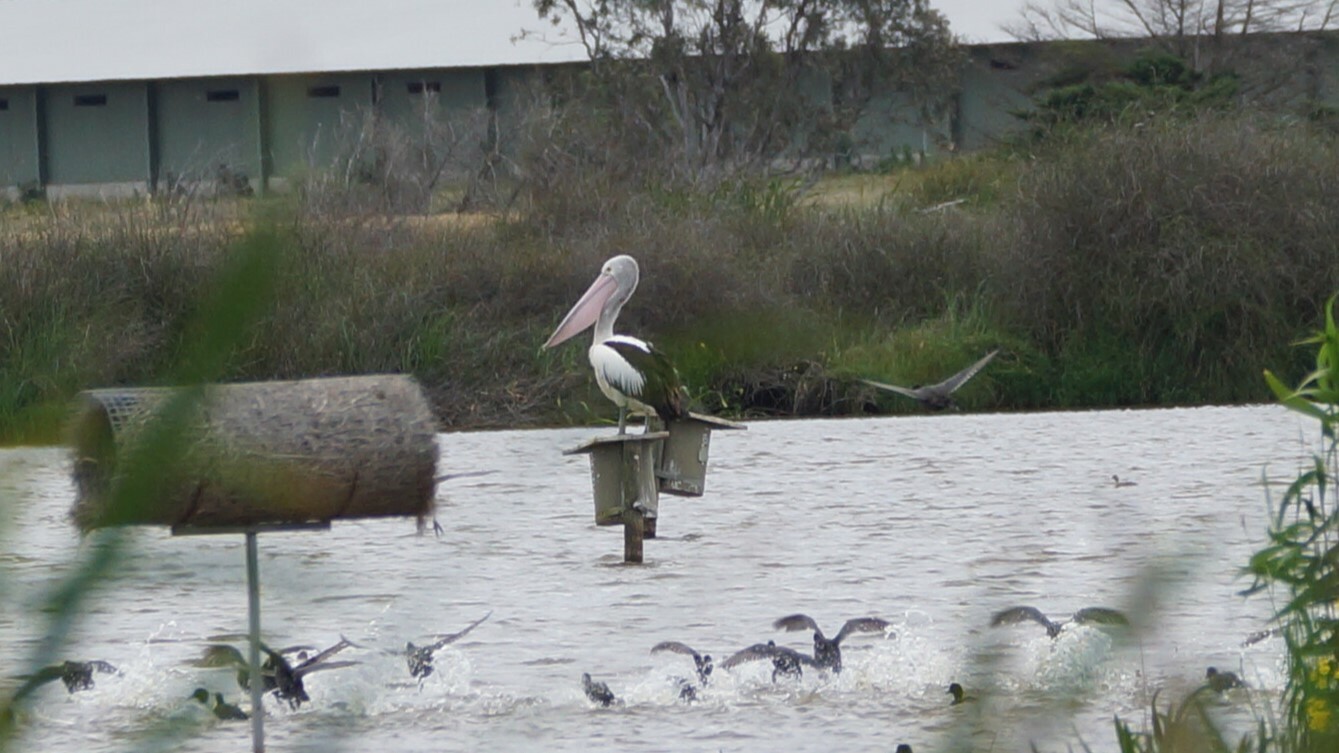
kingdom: Animalia
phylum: Chordata
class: Aves
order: Pelecaniformes
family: Pelecanidae
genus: Pelecanus
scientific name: Pelecanus conspicillatus
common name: Australian pelican
